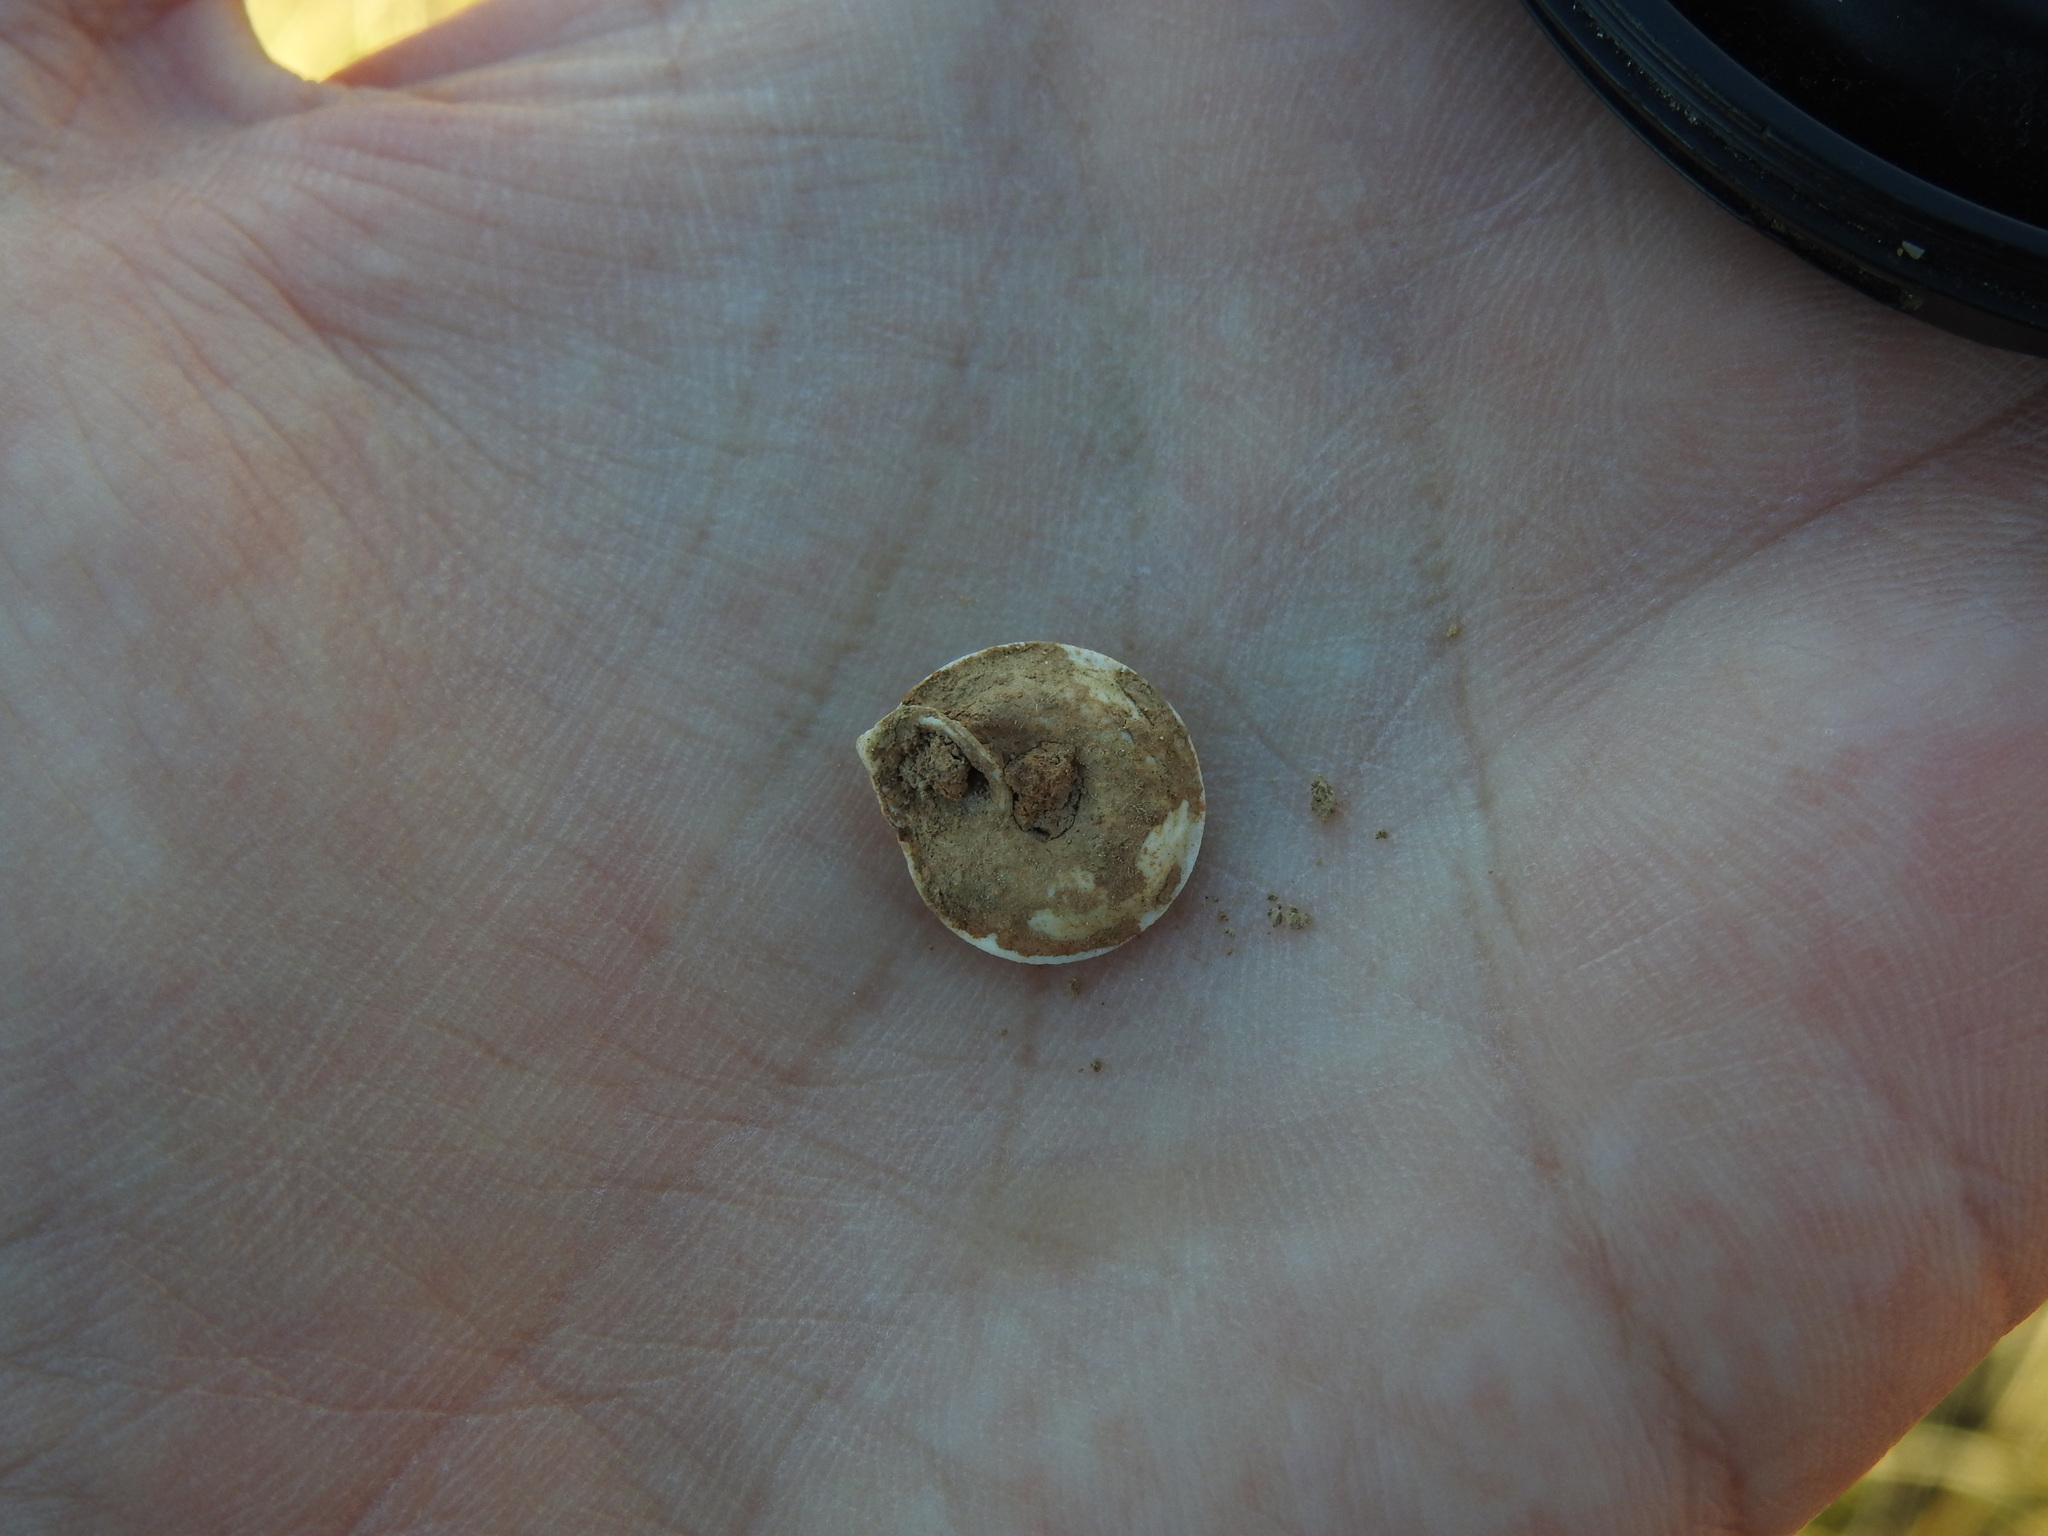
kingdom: Animalia
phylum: Mollusca
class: Gastropoda
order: Stylommatophora
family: Trissexodontidae
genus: Gittenbergeria
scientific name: Gittenbergeria turriplana
